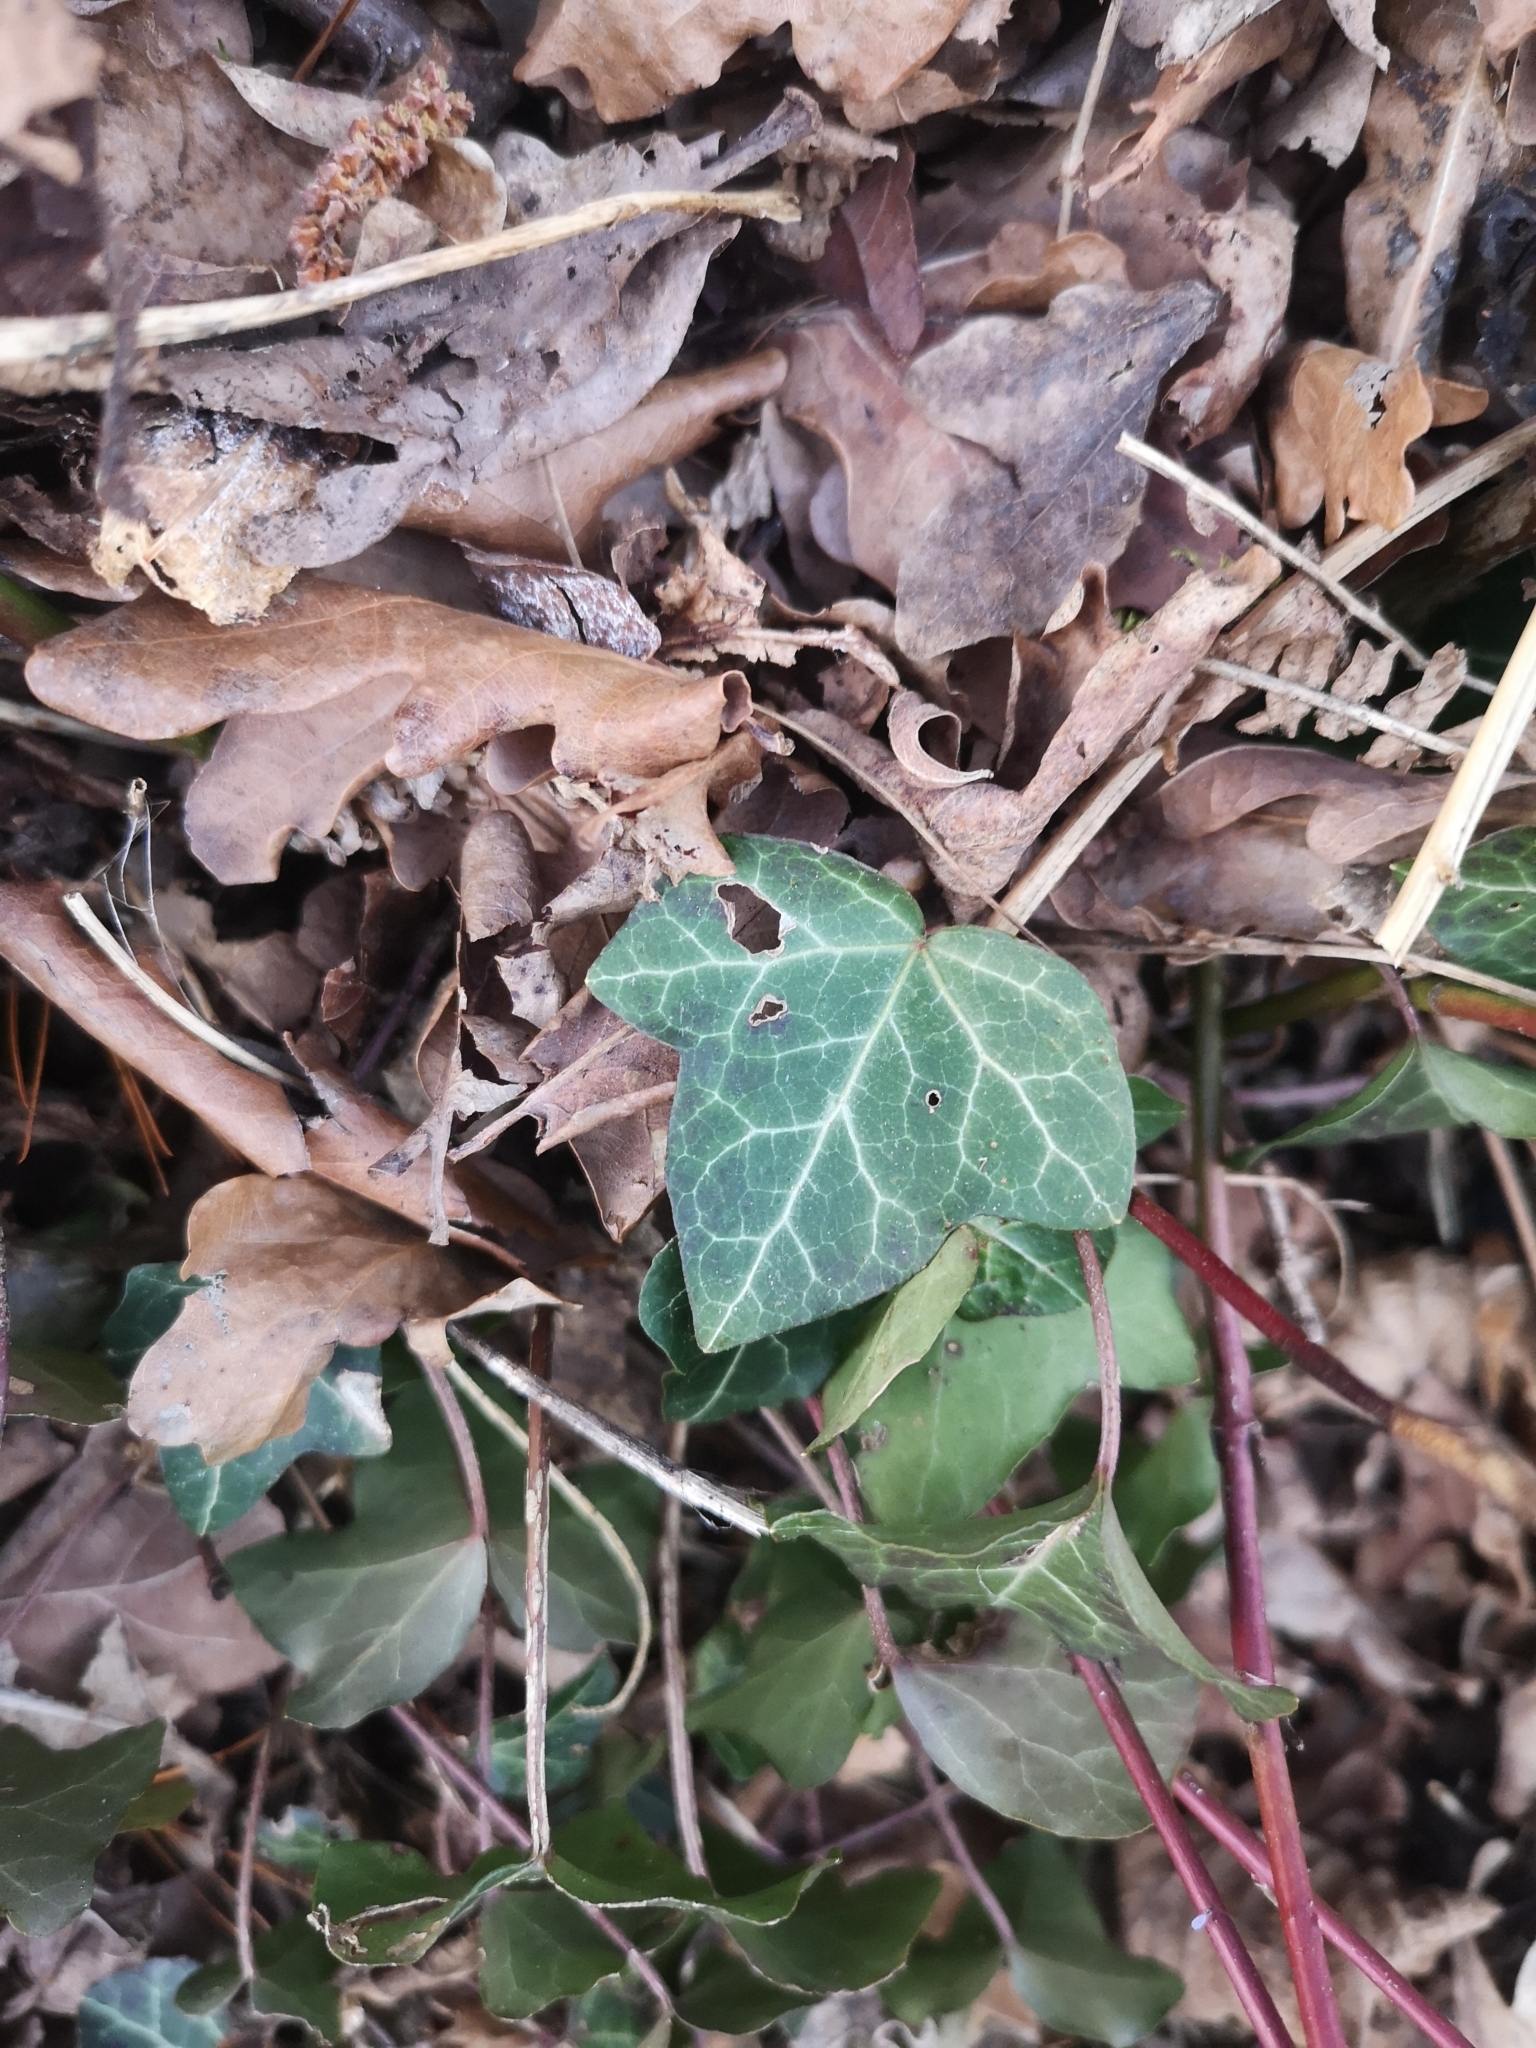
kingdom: Plantae
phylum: Tracheophyta
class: Magnoliopsida
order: Apiales
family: Araliaceae
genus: Hedera
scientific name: Hedera helix
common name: Ivy
